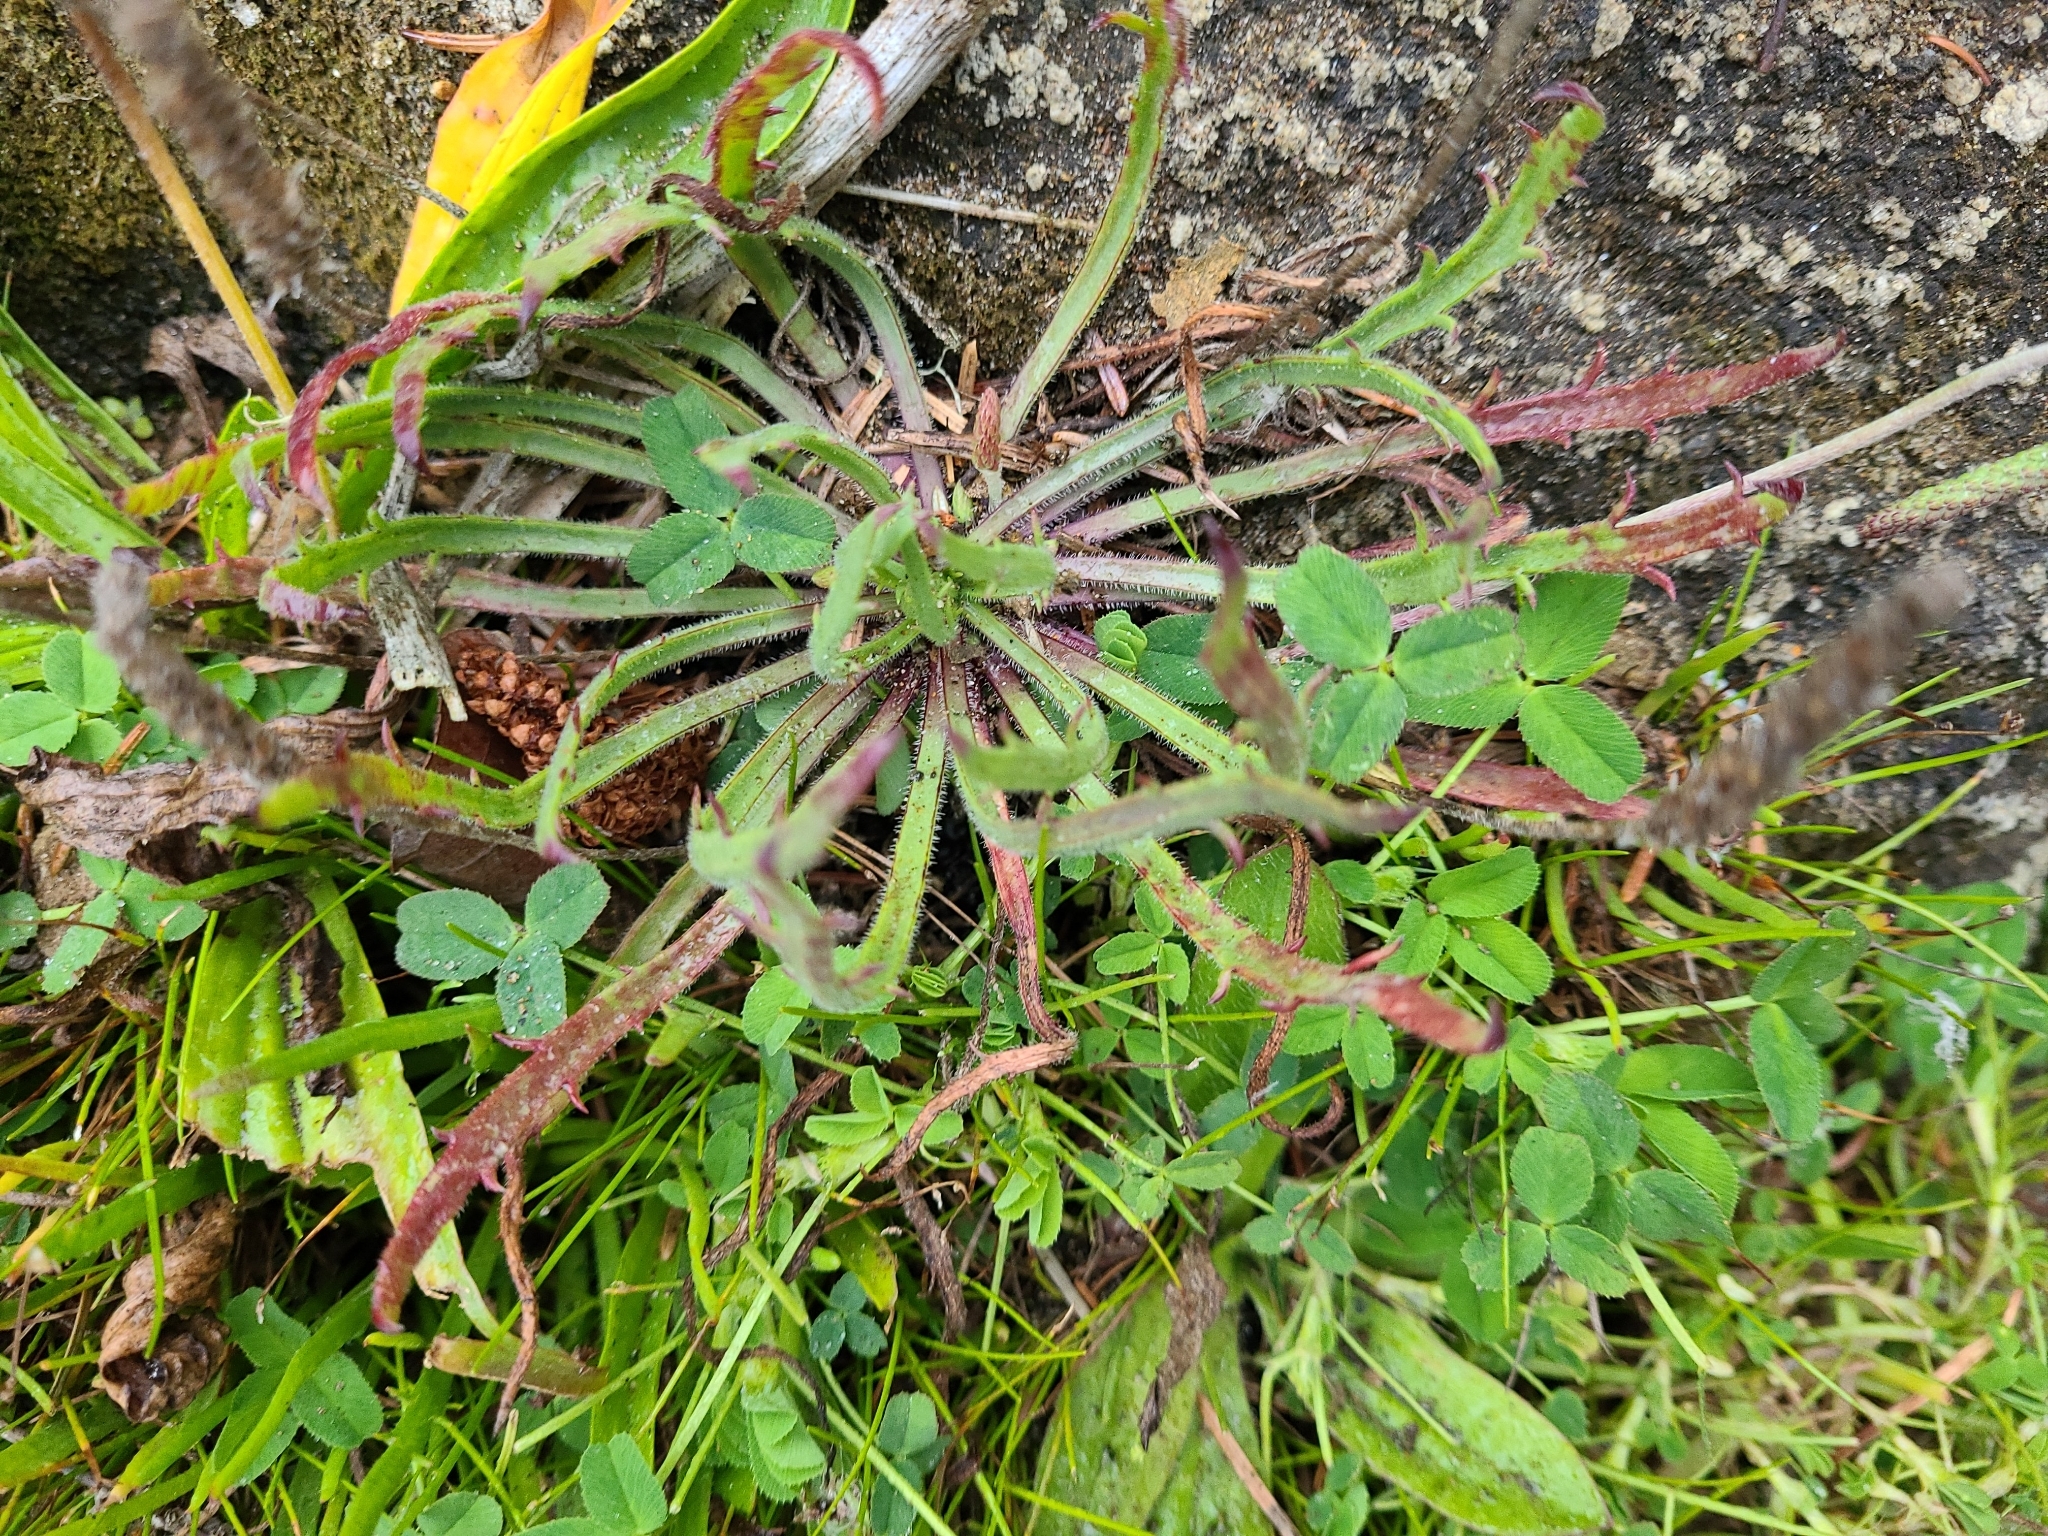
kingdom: Plantae
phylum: Tracheophyta
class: Magnoliopsida
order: Lamiales
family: Plantaginaceae
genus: Plantago
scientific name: Plantago coronopus
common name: Buck's-horn plantain
